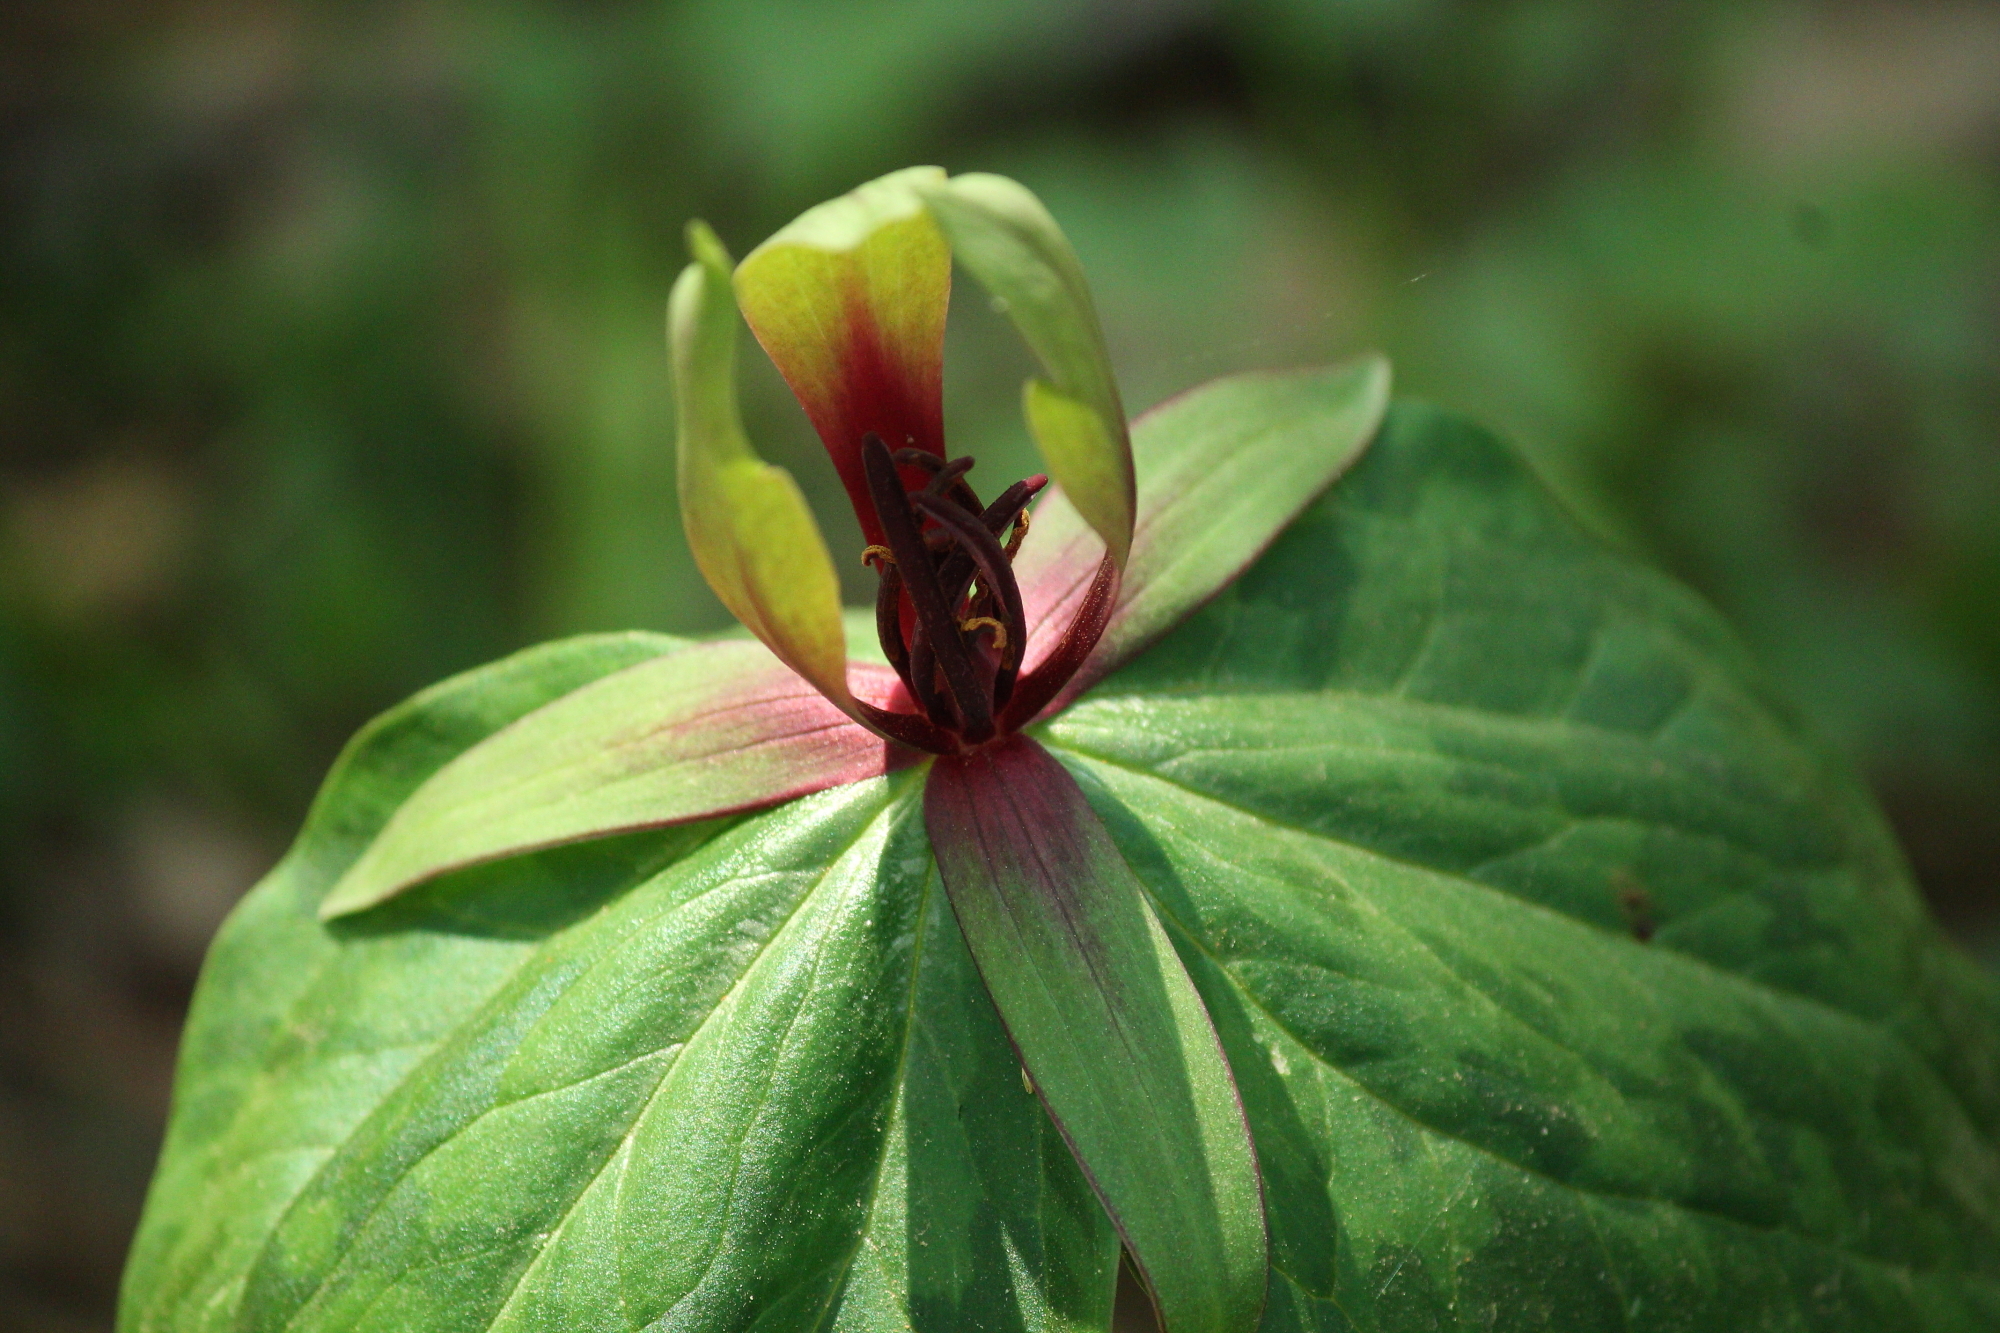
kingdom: Plantae
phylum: Tracheophyta
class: Liliopsida
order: Liliales
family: Melanthiaceae
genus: Trillium
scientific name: Trillium viridescens
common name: Ozark green trillium
